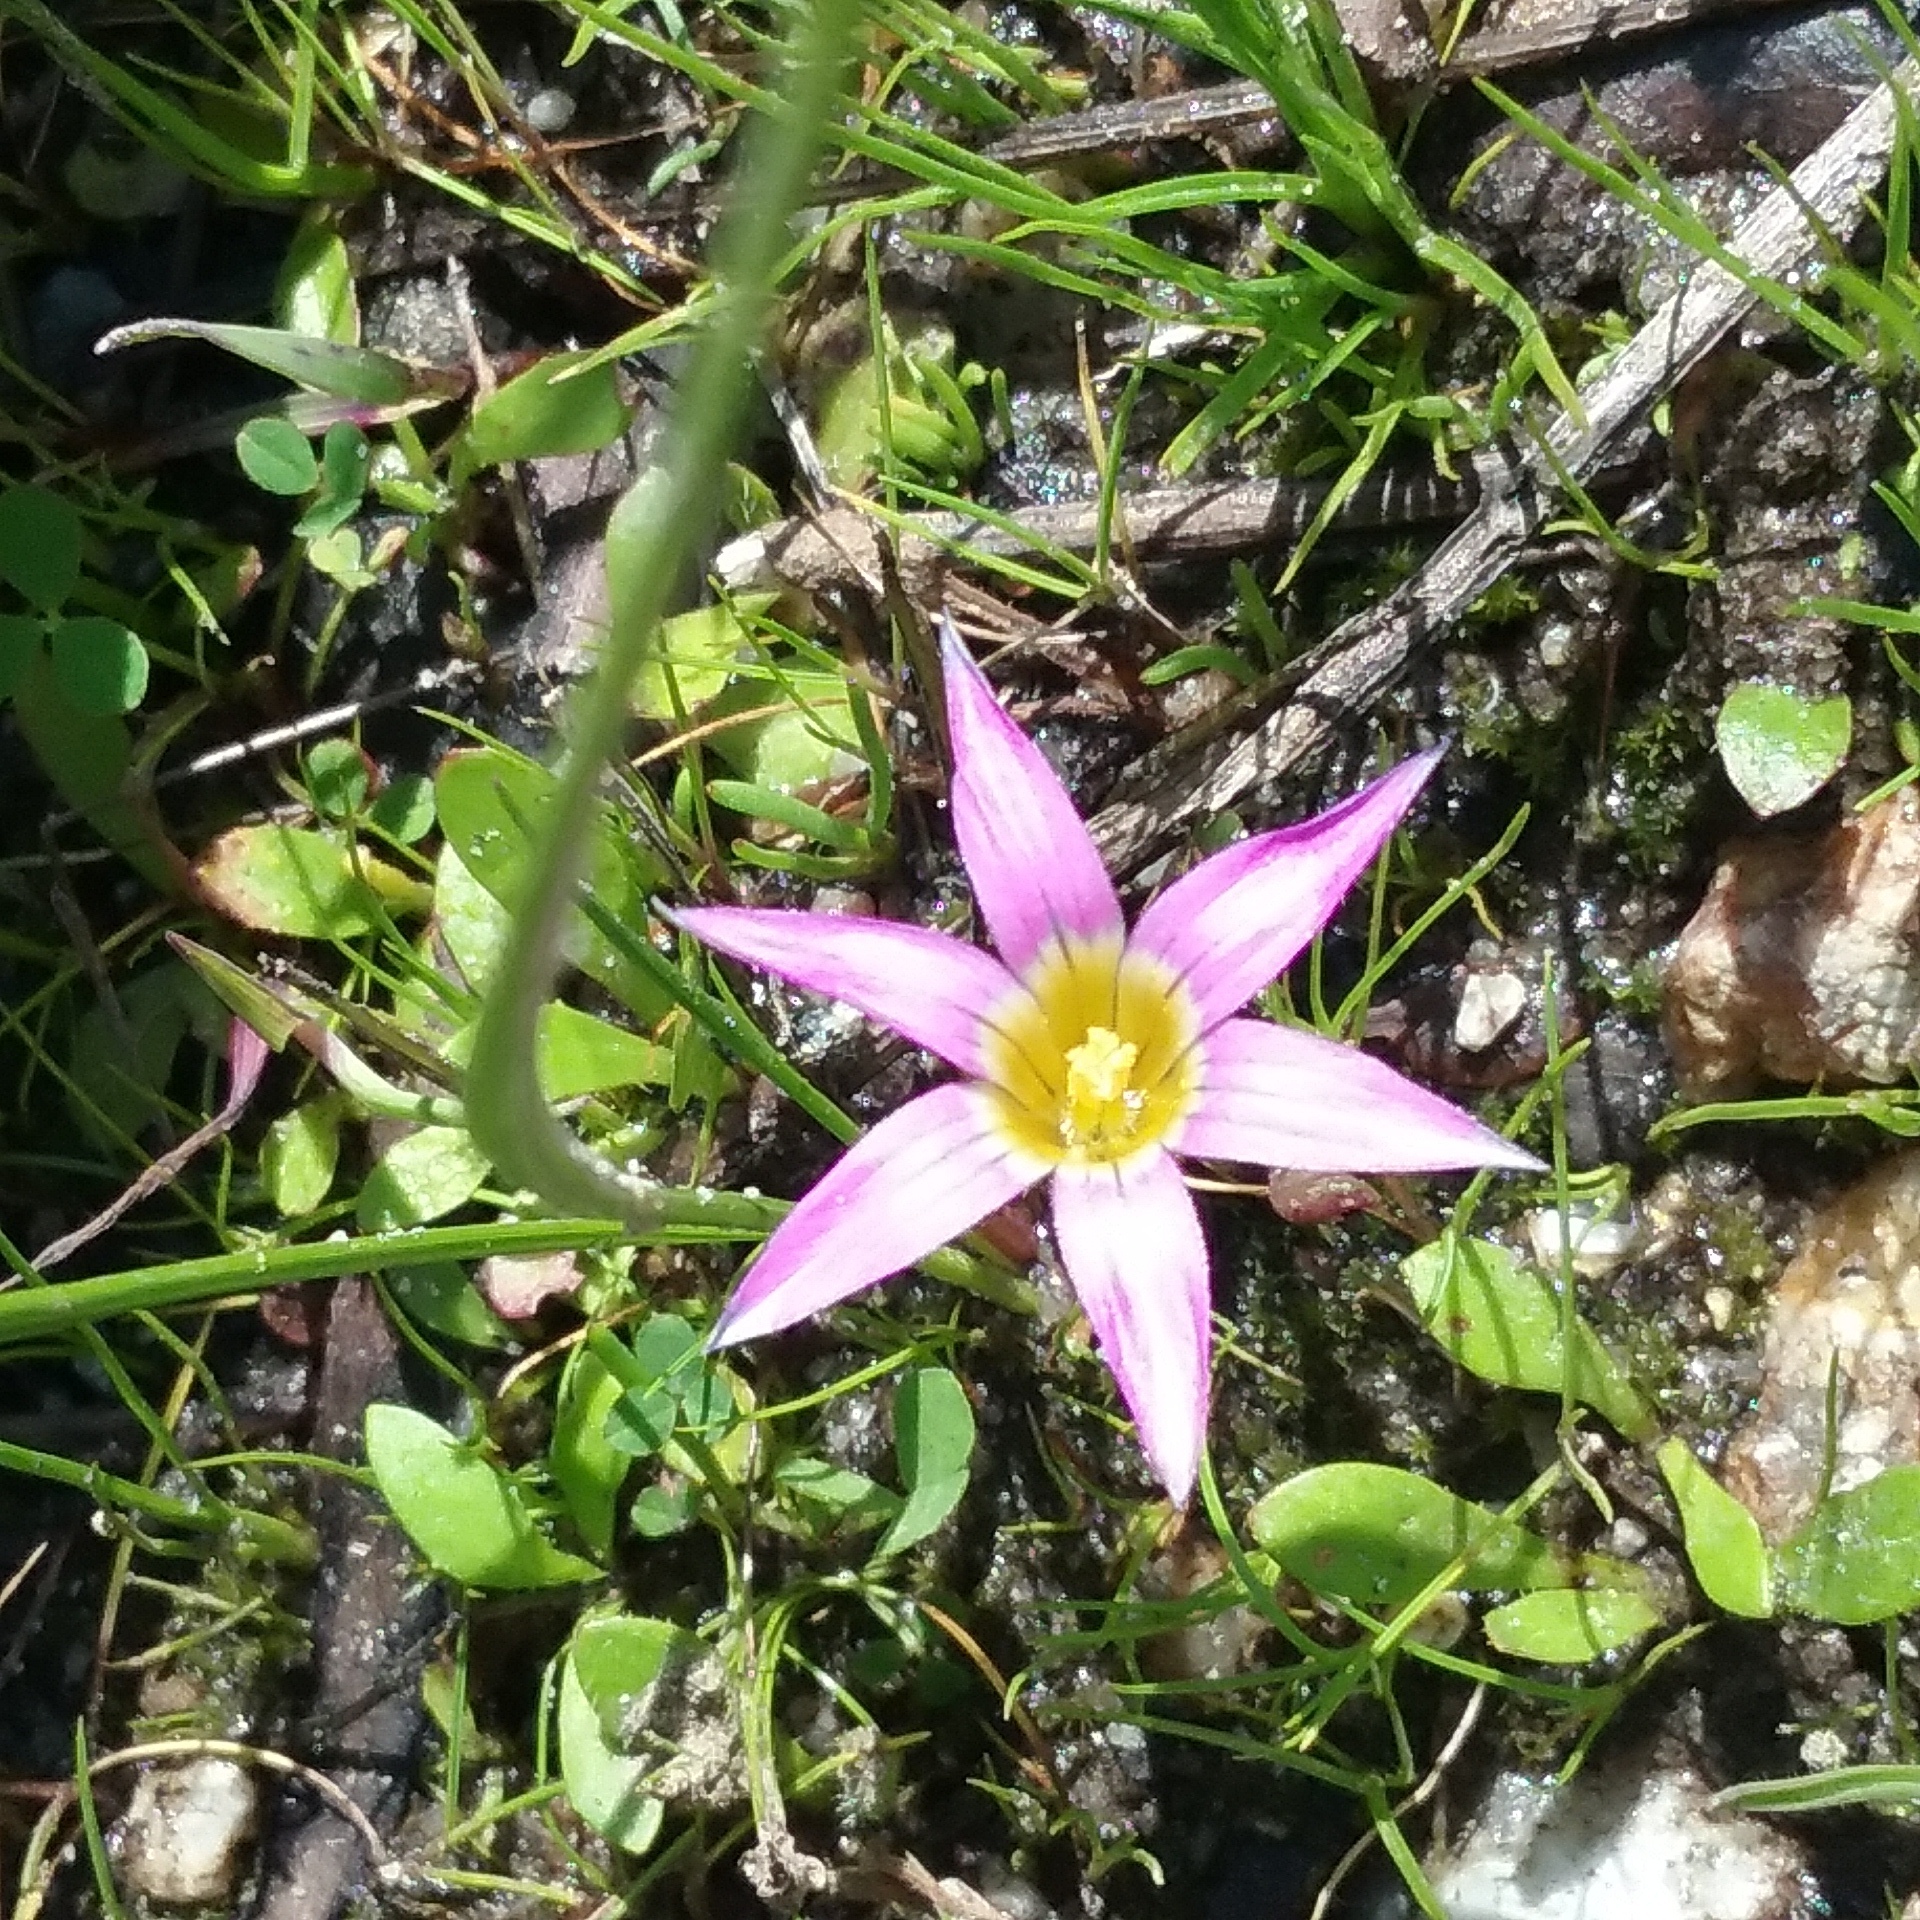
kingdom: Plantae
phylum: Tracheophyta
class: Liliopsida
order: Asparagales
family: Iridaceae
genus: Romulea
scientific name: Romulea rosea
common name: Oniongrass
